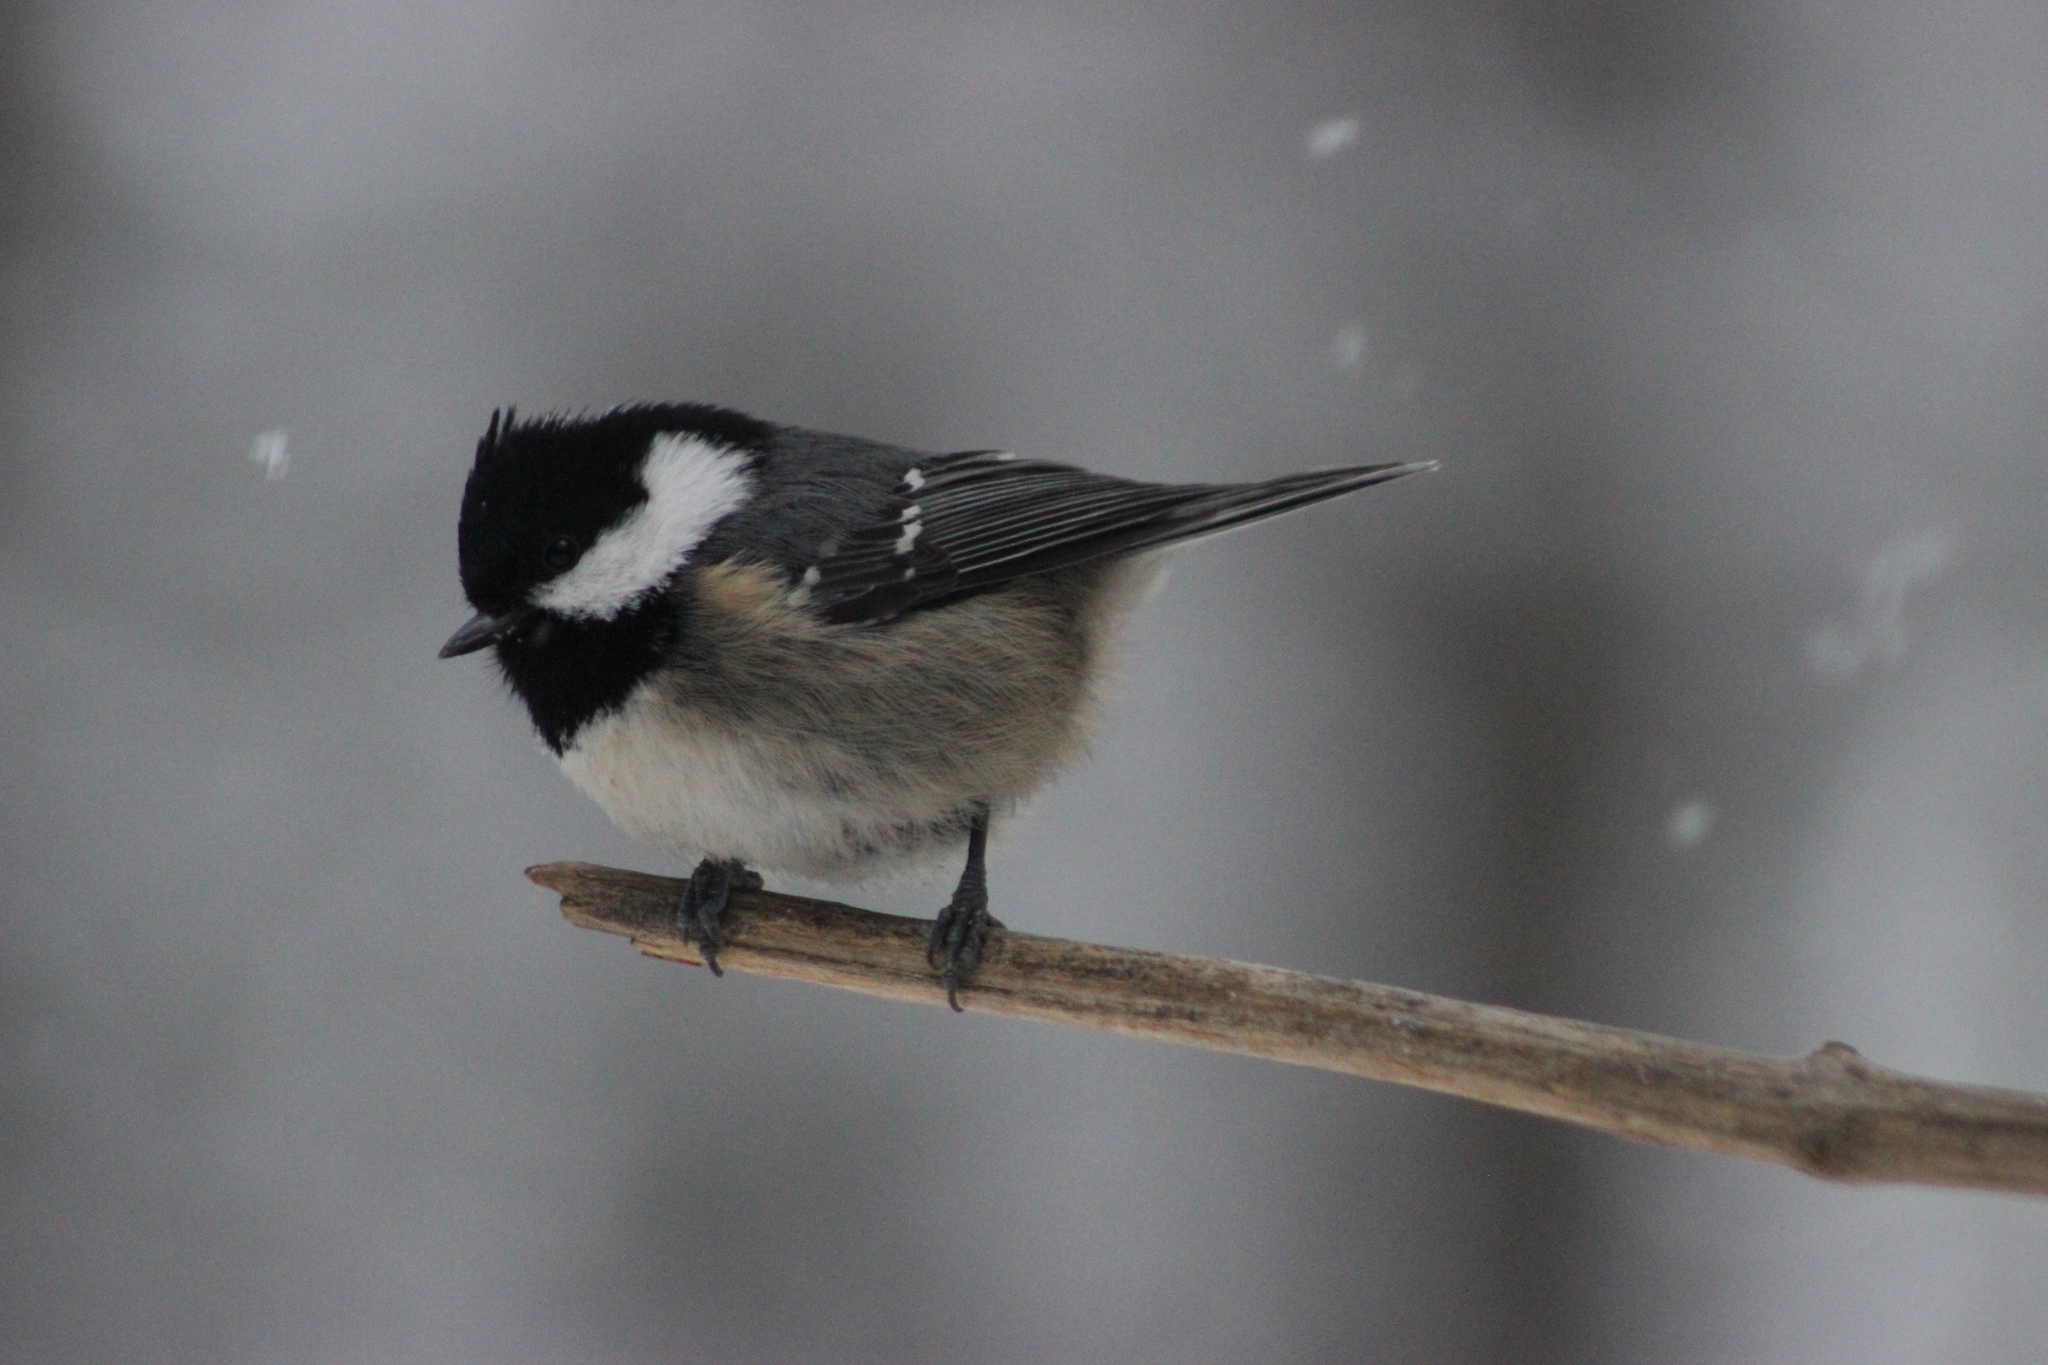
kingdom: Animalia
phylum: Chordata
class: Aves
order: Passeriformes
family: Paridae
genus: Periparus
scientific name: Periparus ater
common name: Coal tit
